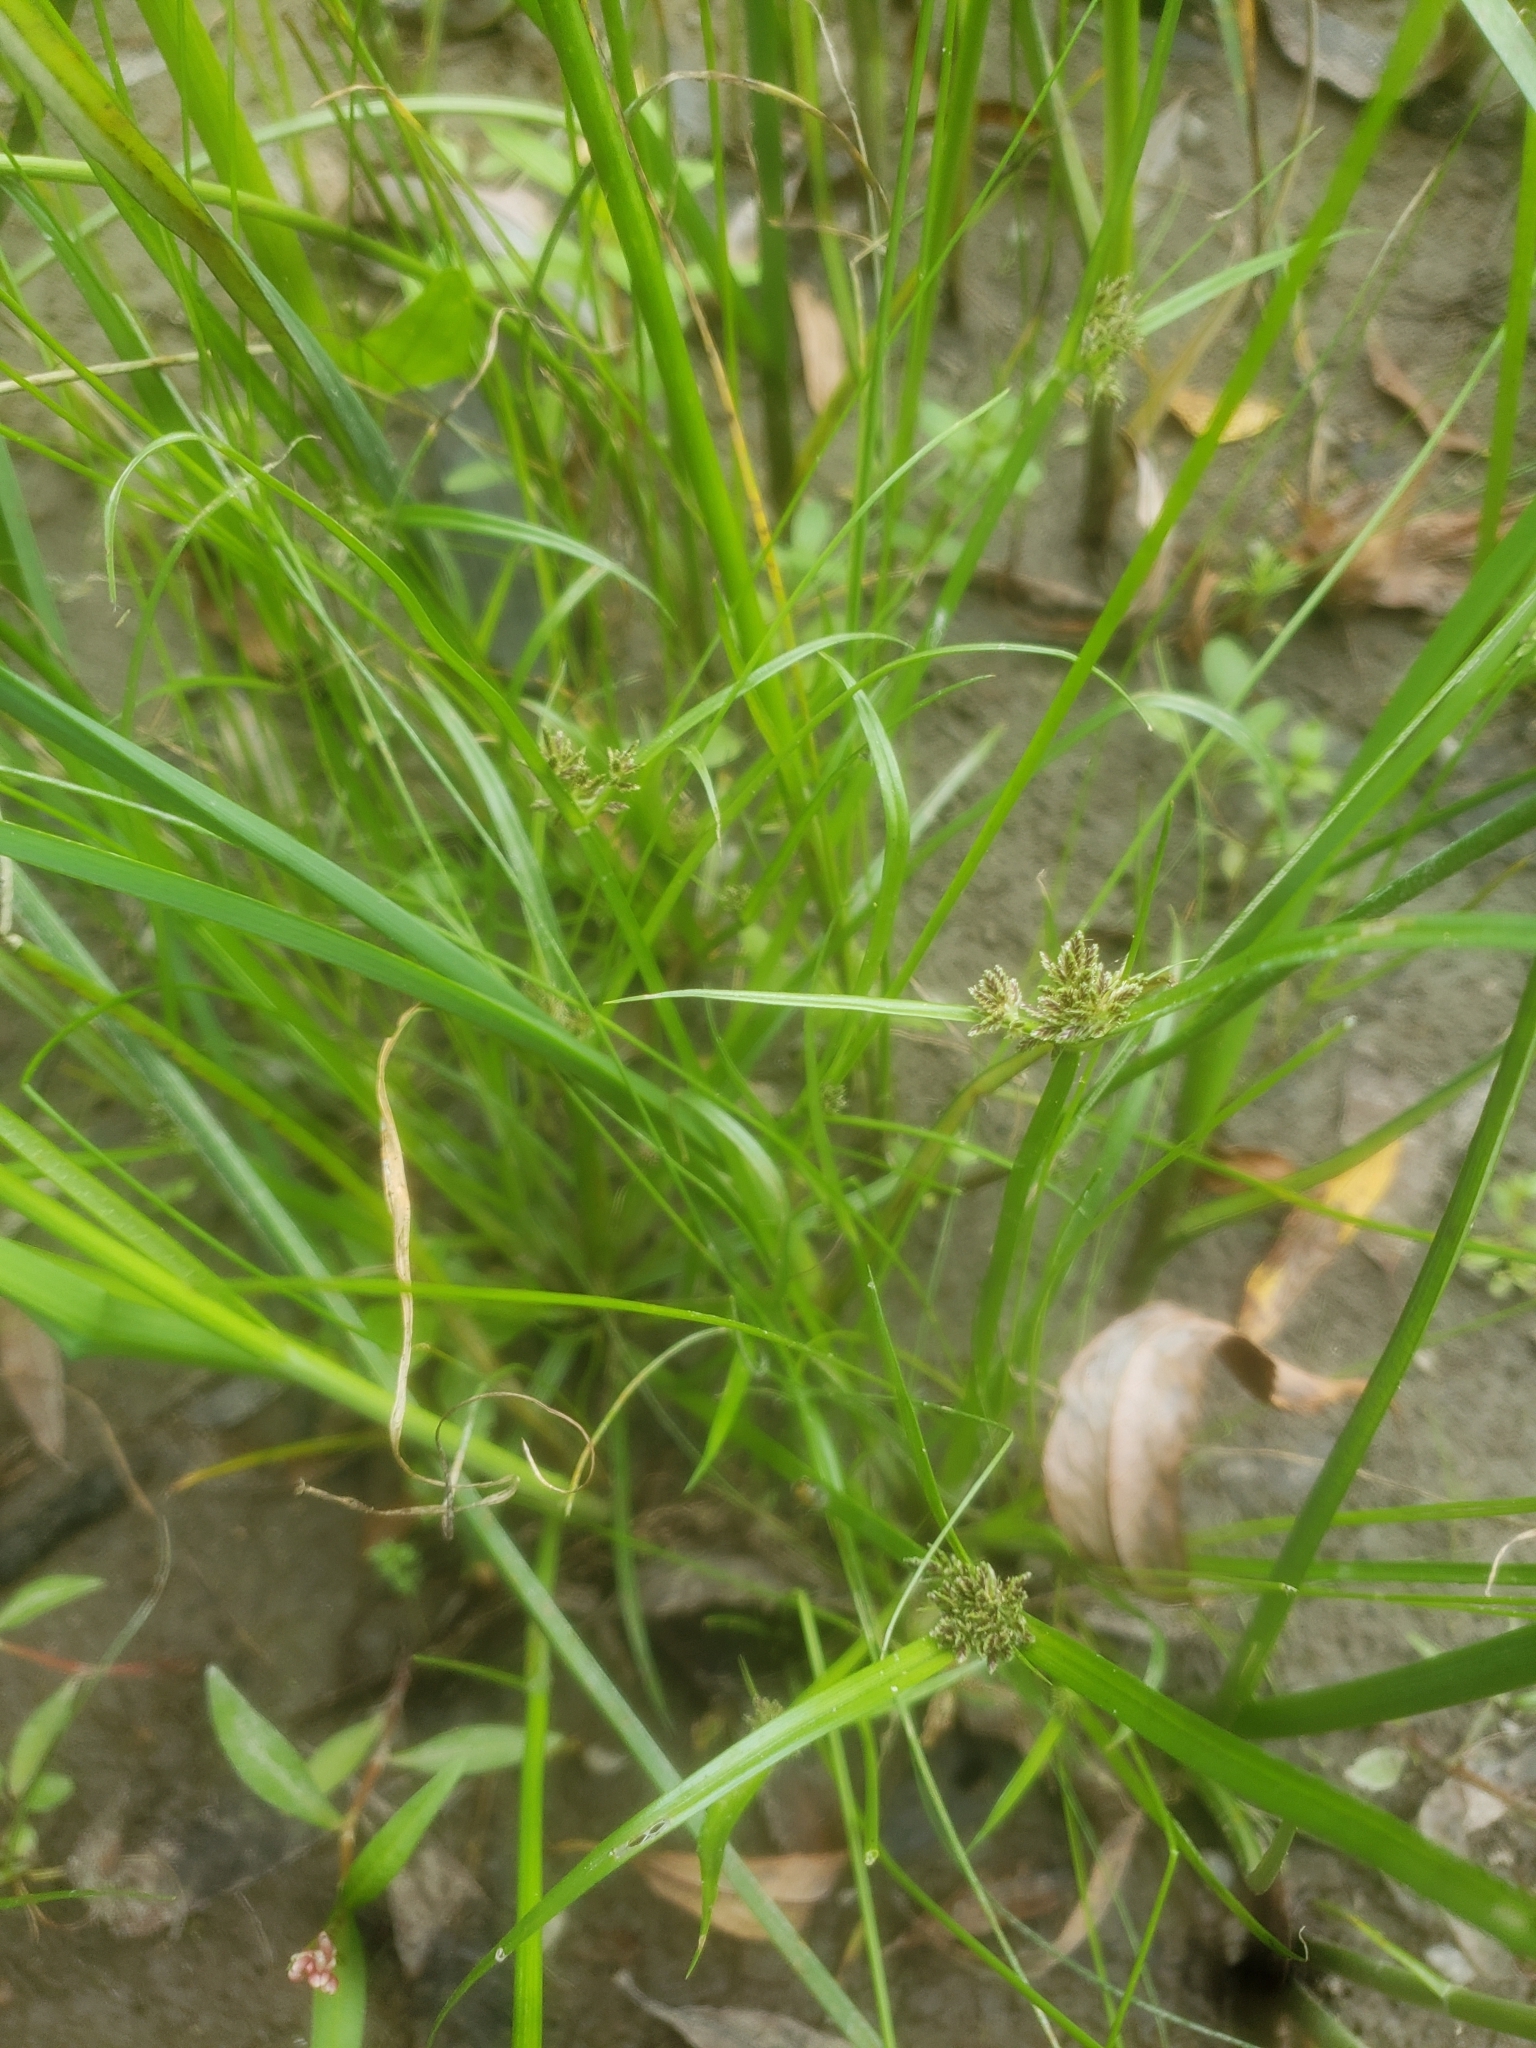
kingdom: Plantae
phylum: Tracheophyta
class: Liliopsida
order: Poales
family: Cyperaceae
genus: Cyperus
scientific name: Cyperus fuscus
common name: Brown galingale
